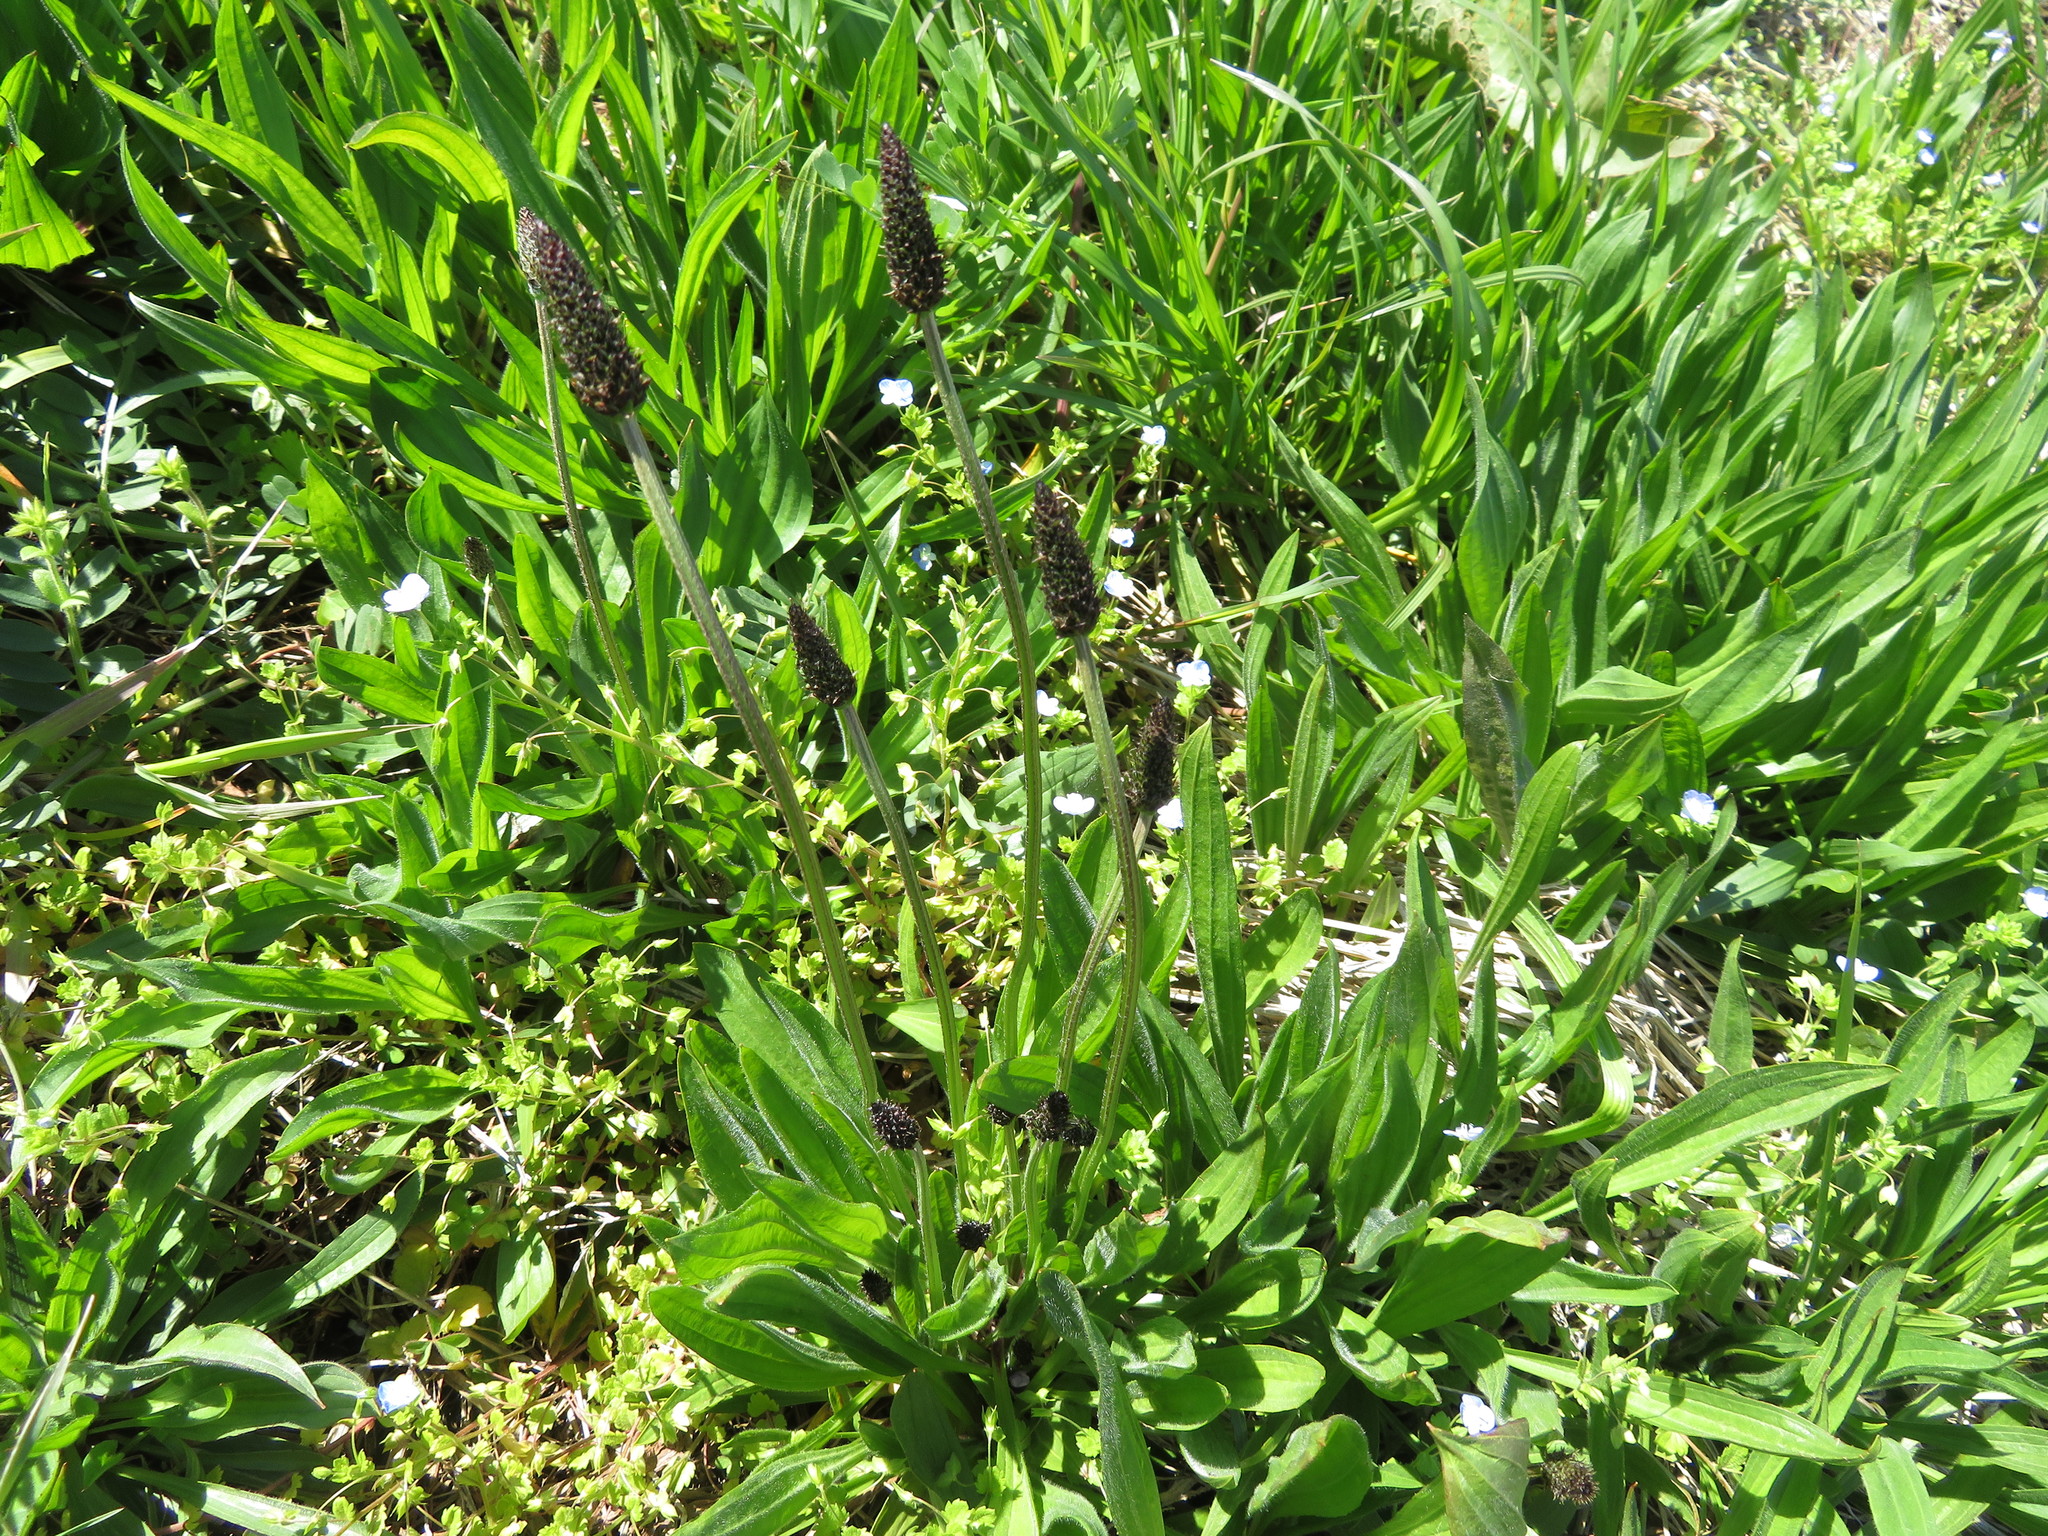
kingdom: Plantae
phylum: Tracheophyta
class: Magnoliopsida
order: Lamiales
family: Plantaginaceae
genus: Plantago
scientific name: Plantago lanceolata
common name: Ribwort plantain
